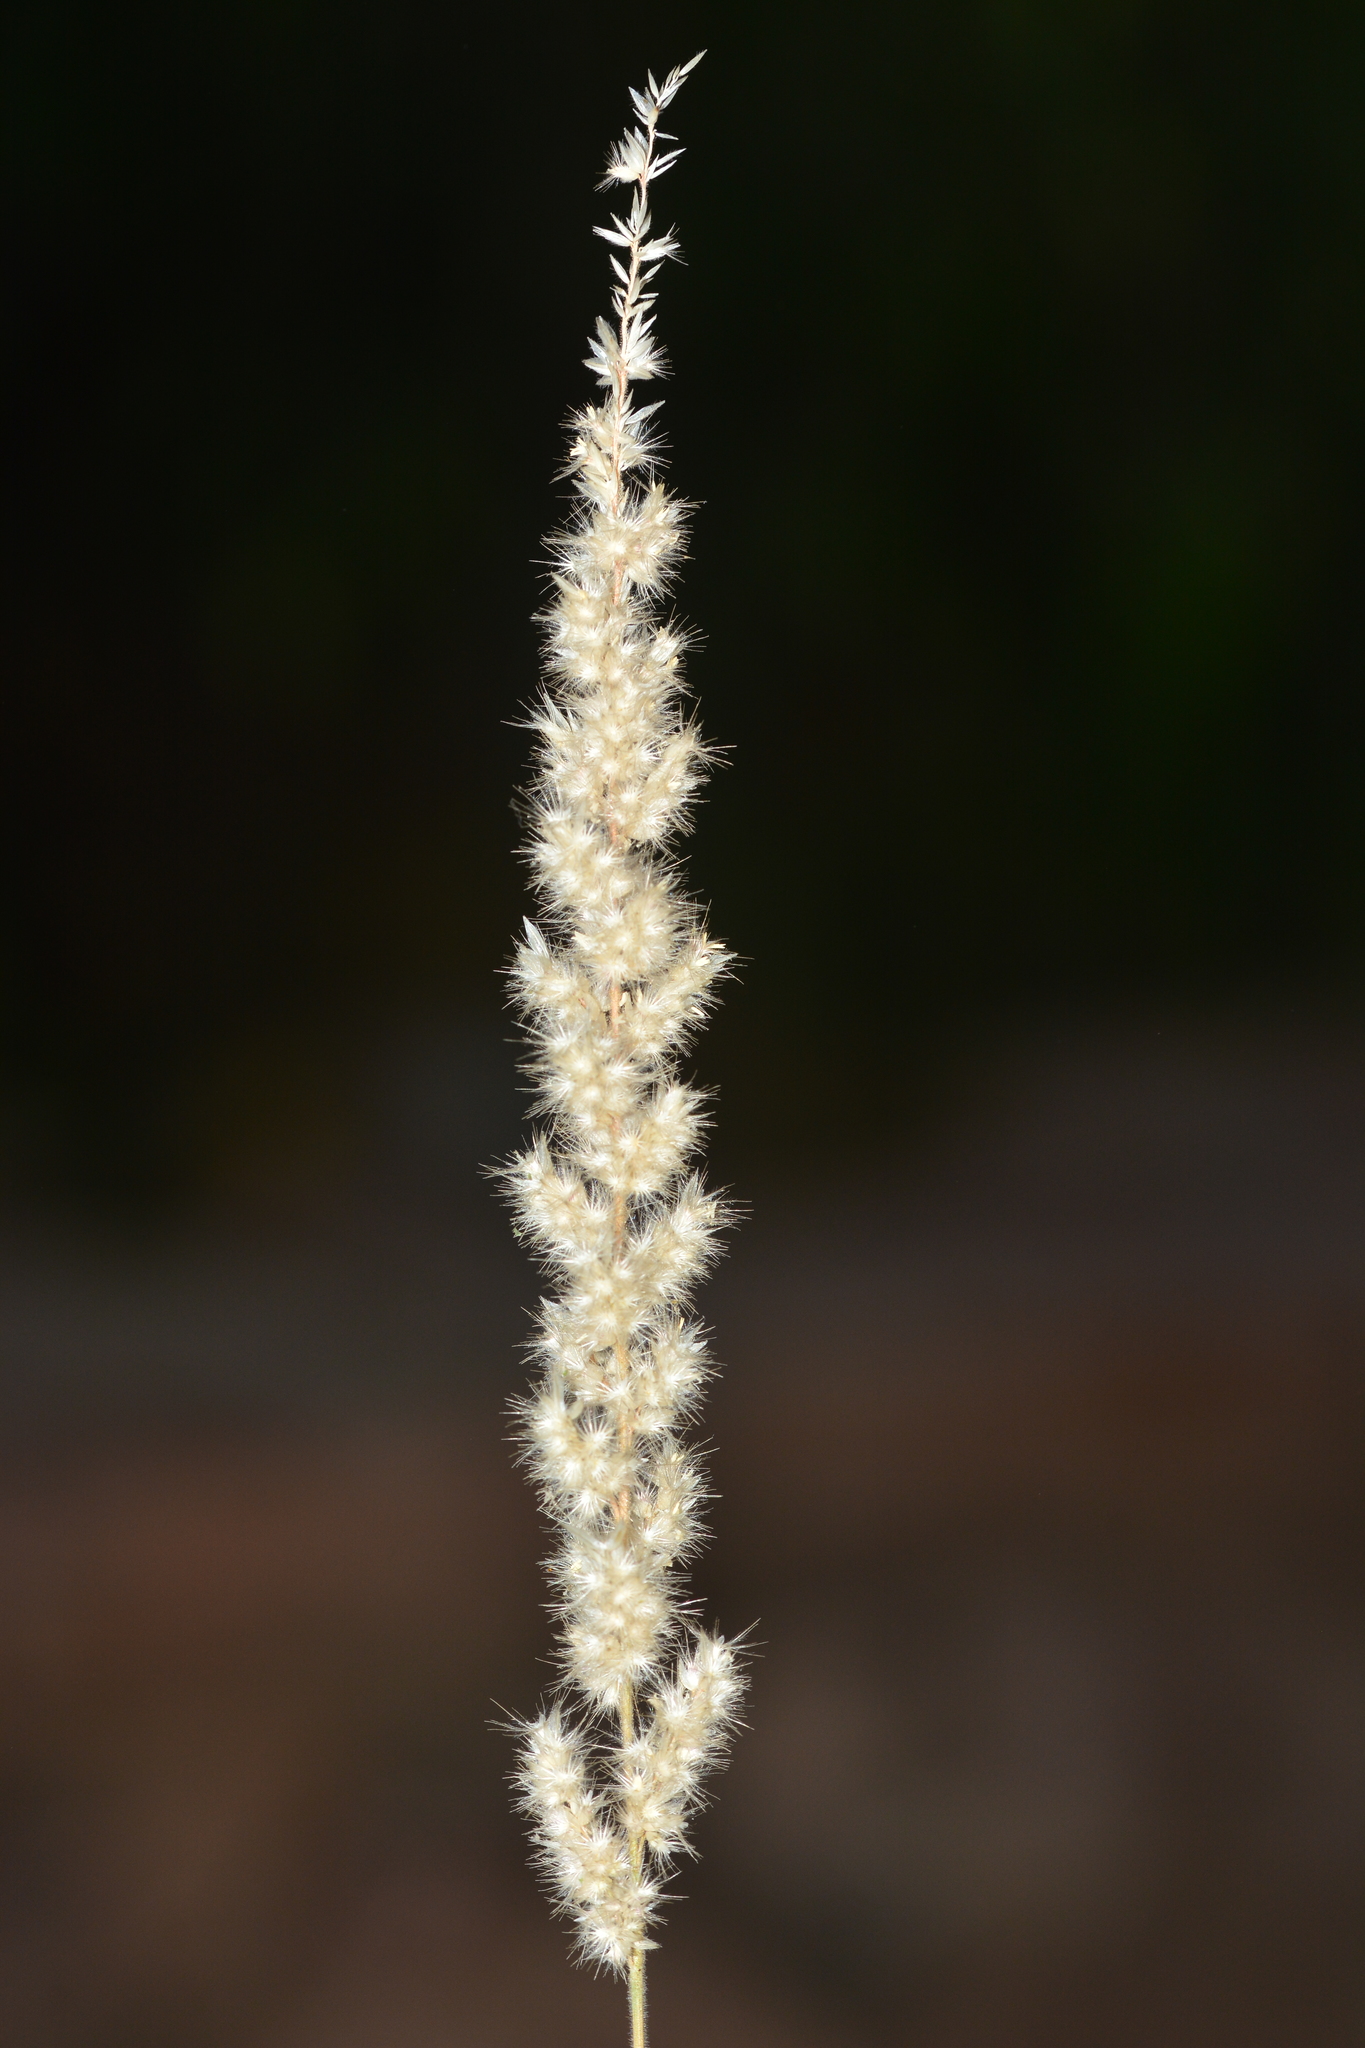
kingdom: Plantae
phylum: Tracheophyta
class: Liliopsida
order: Poales
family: Poaceae
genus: Enneapogon
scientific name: Enneapogon cenchroides
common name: Soft feather pappusgrass
